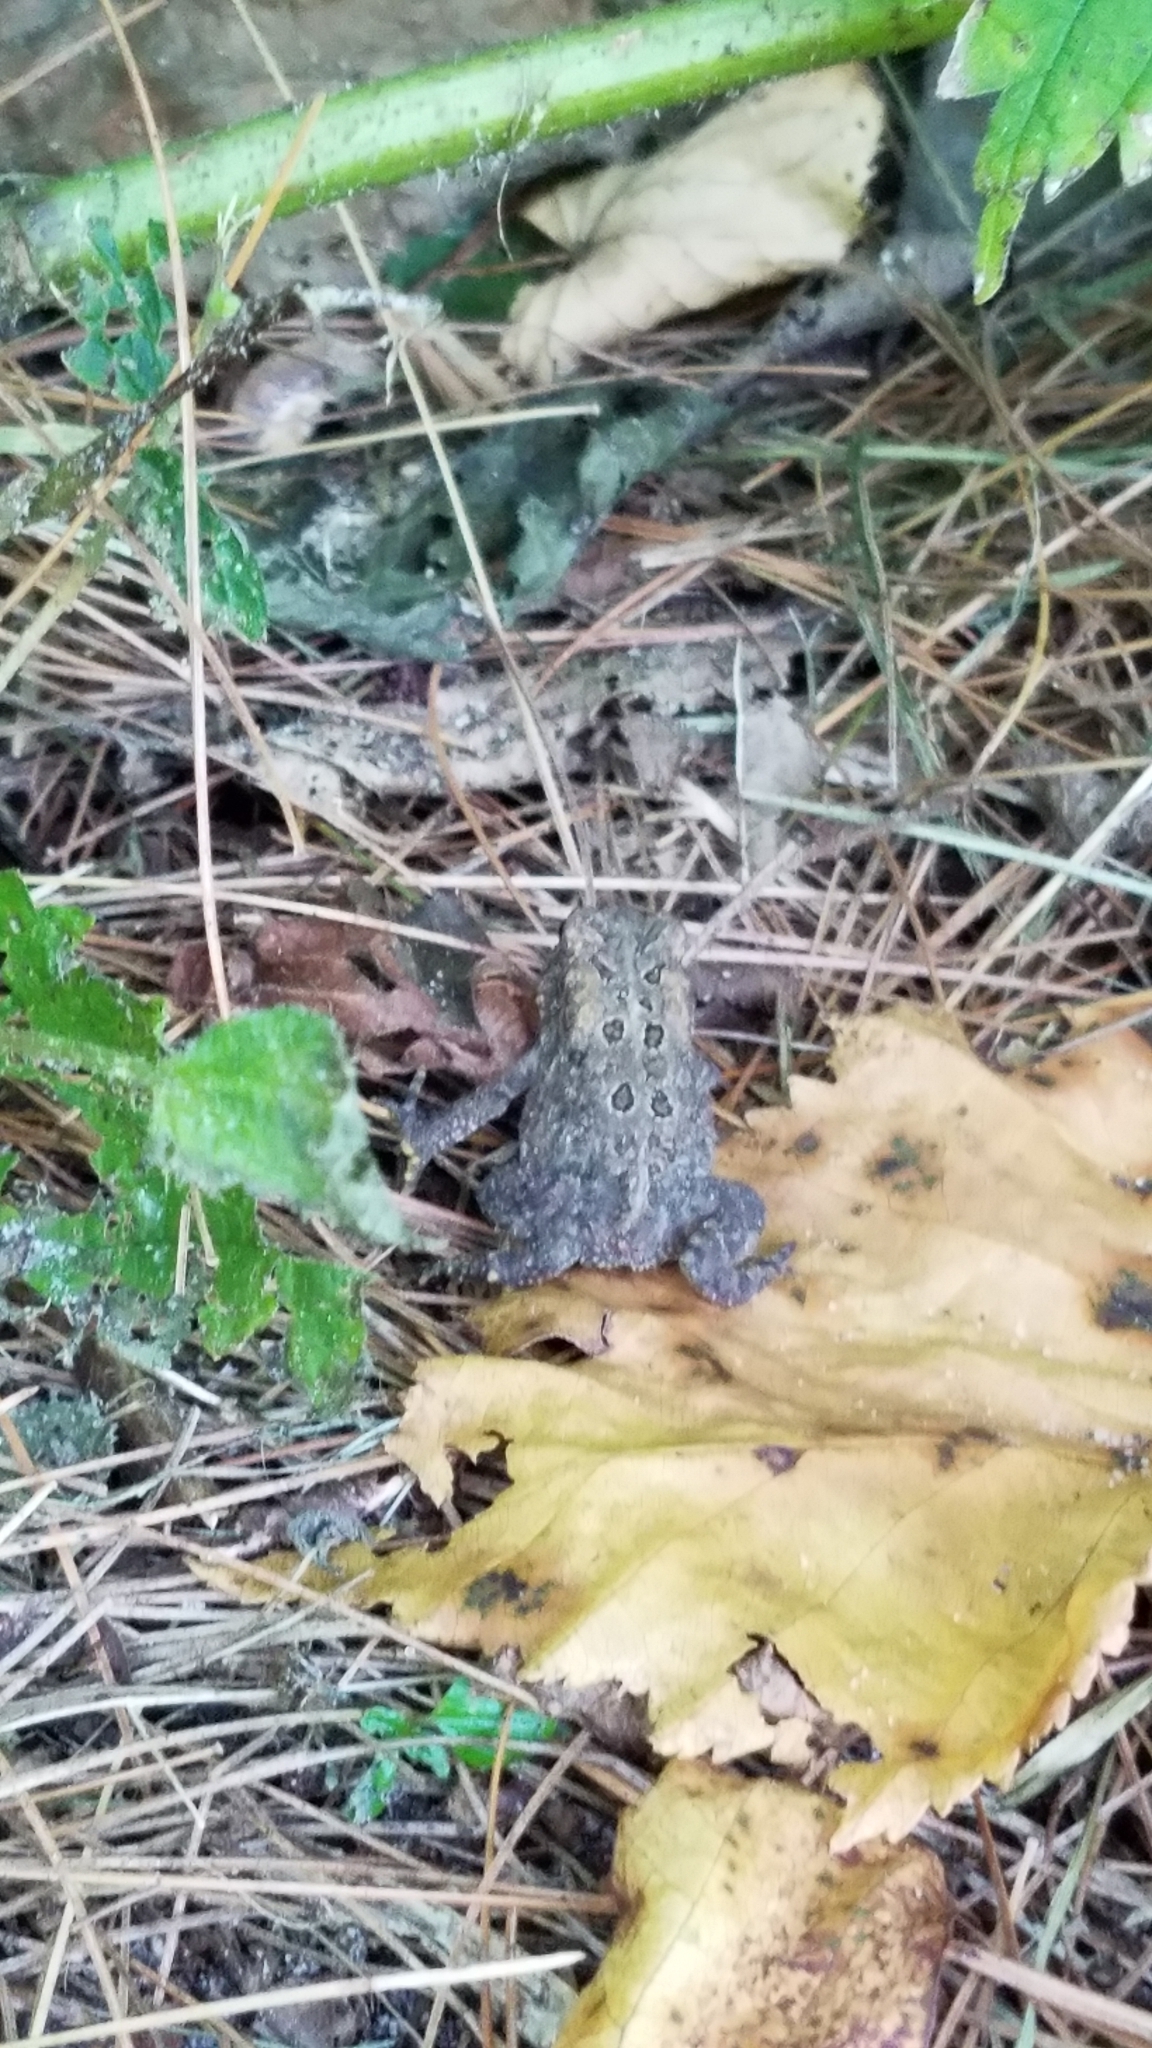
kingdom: Animalia
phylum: Chordata
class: Amphibia
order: Anura
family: Bufonidae
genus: Anaxyrus
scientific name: Anaxyrus americanus
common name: American toad
